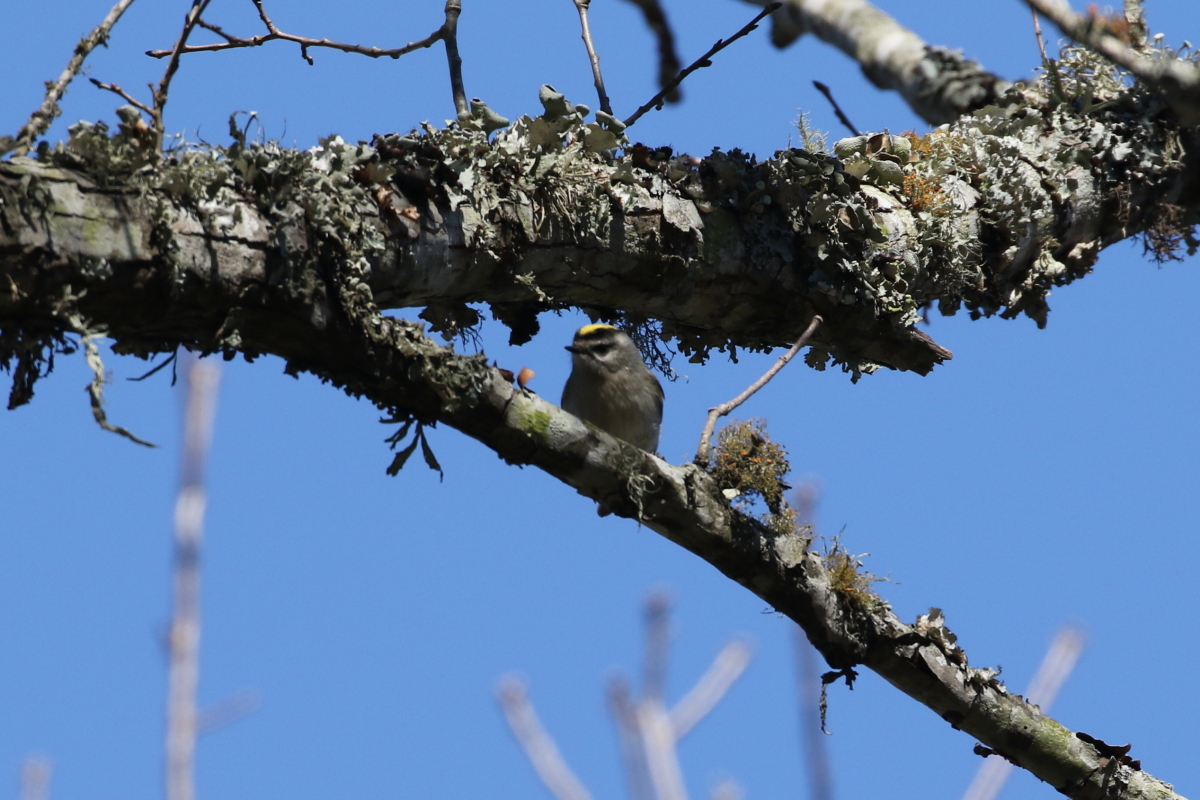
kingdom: Animalia
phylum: Chordata
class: Aves
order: Passeriformes
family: Regulidae
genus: Regulus
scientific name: Regulus satrapa
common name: Golden-crowned kinglet
